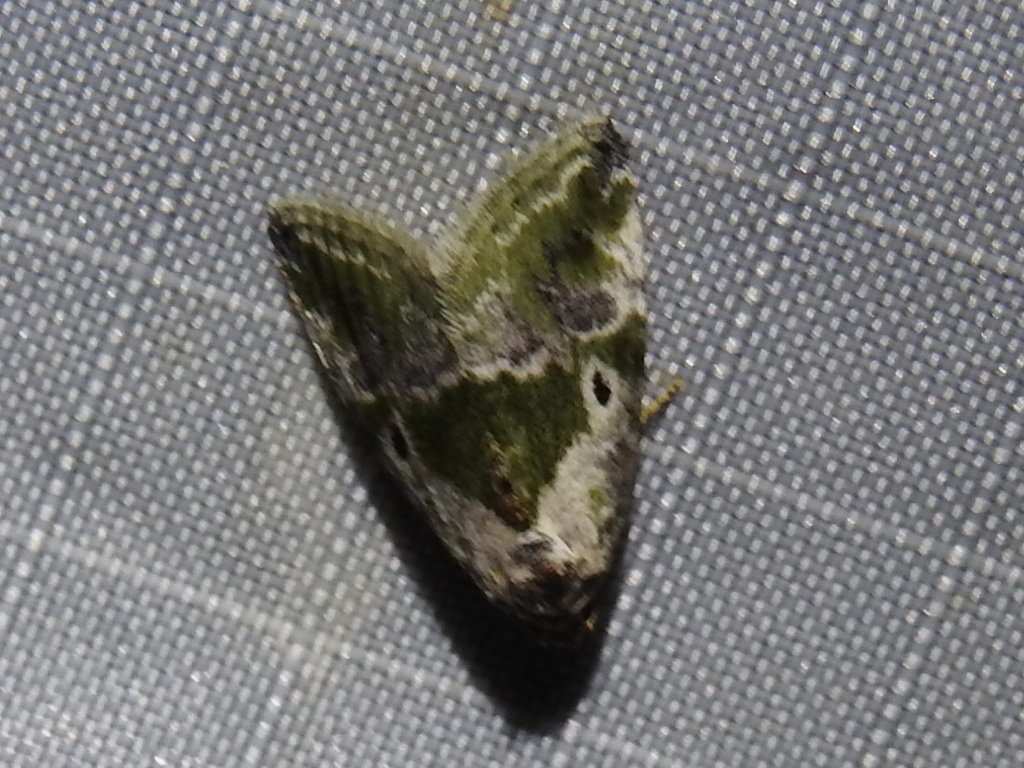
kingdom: Animalia
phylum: Arthropoda
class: Insecta
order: Lepidoptera
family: Noctuidae
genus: Maliattha
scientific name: Maliattha synochitis
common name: Black-dotted glyph
